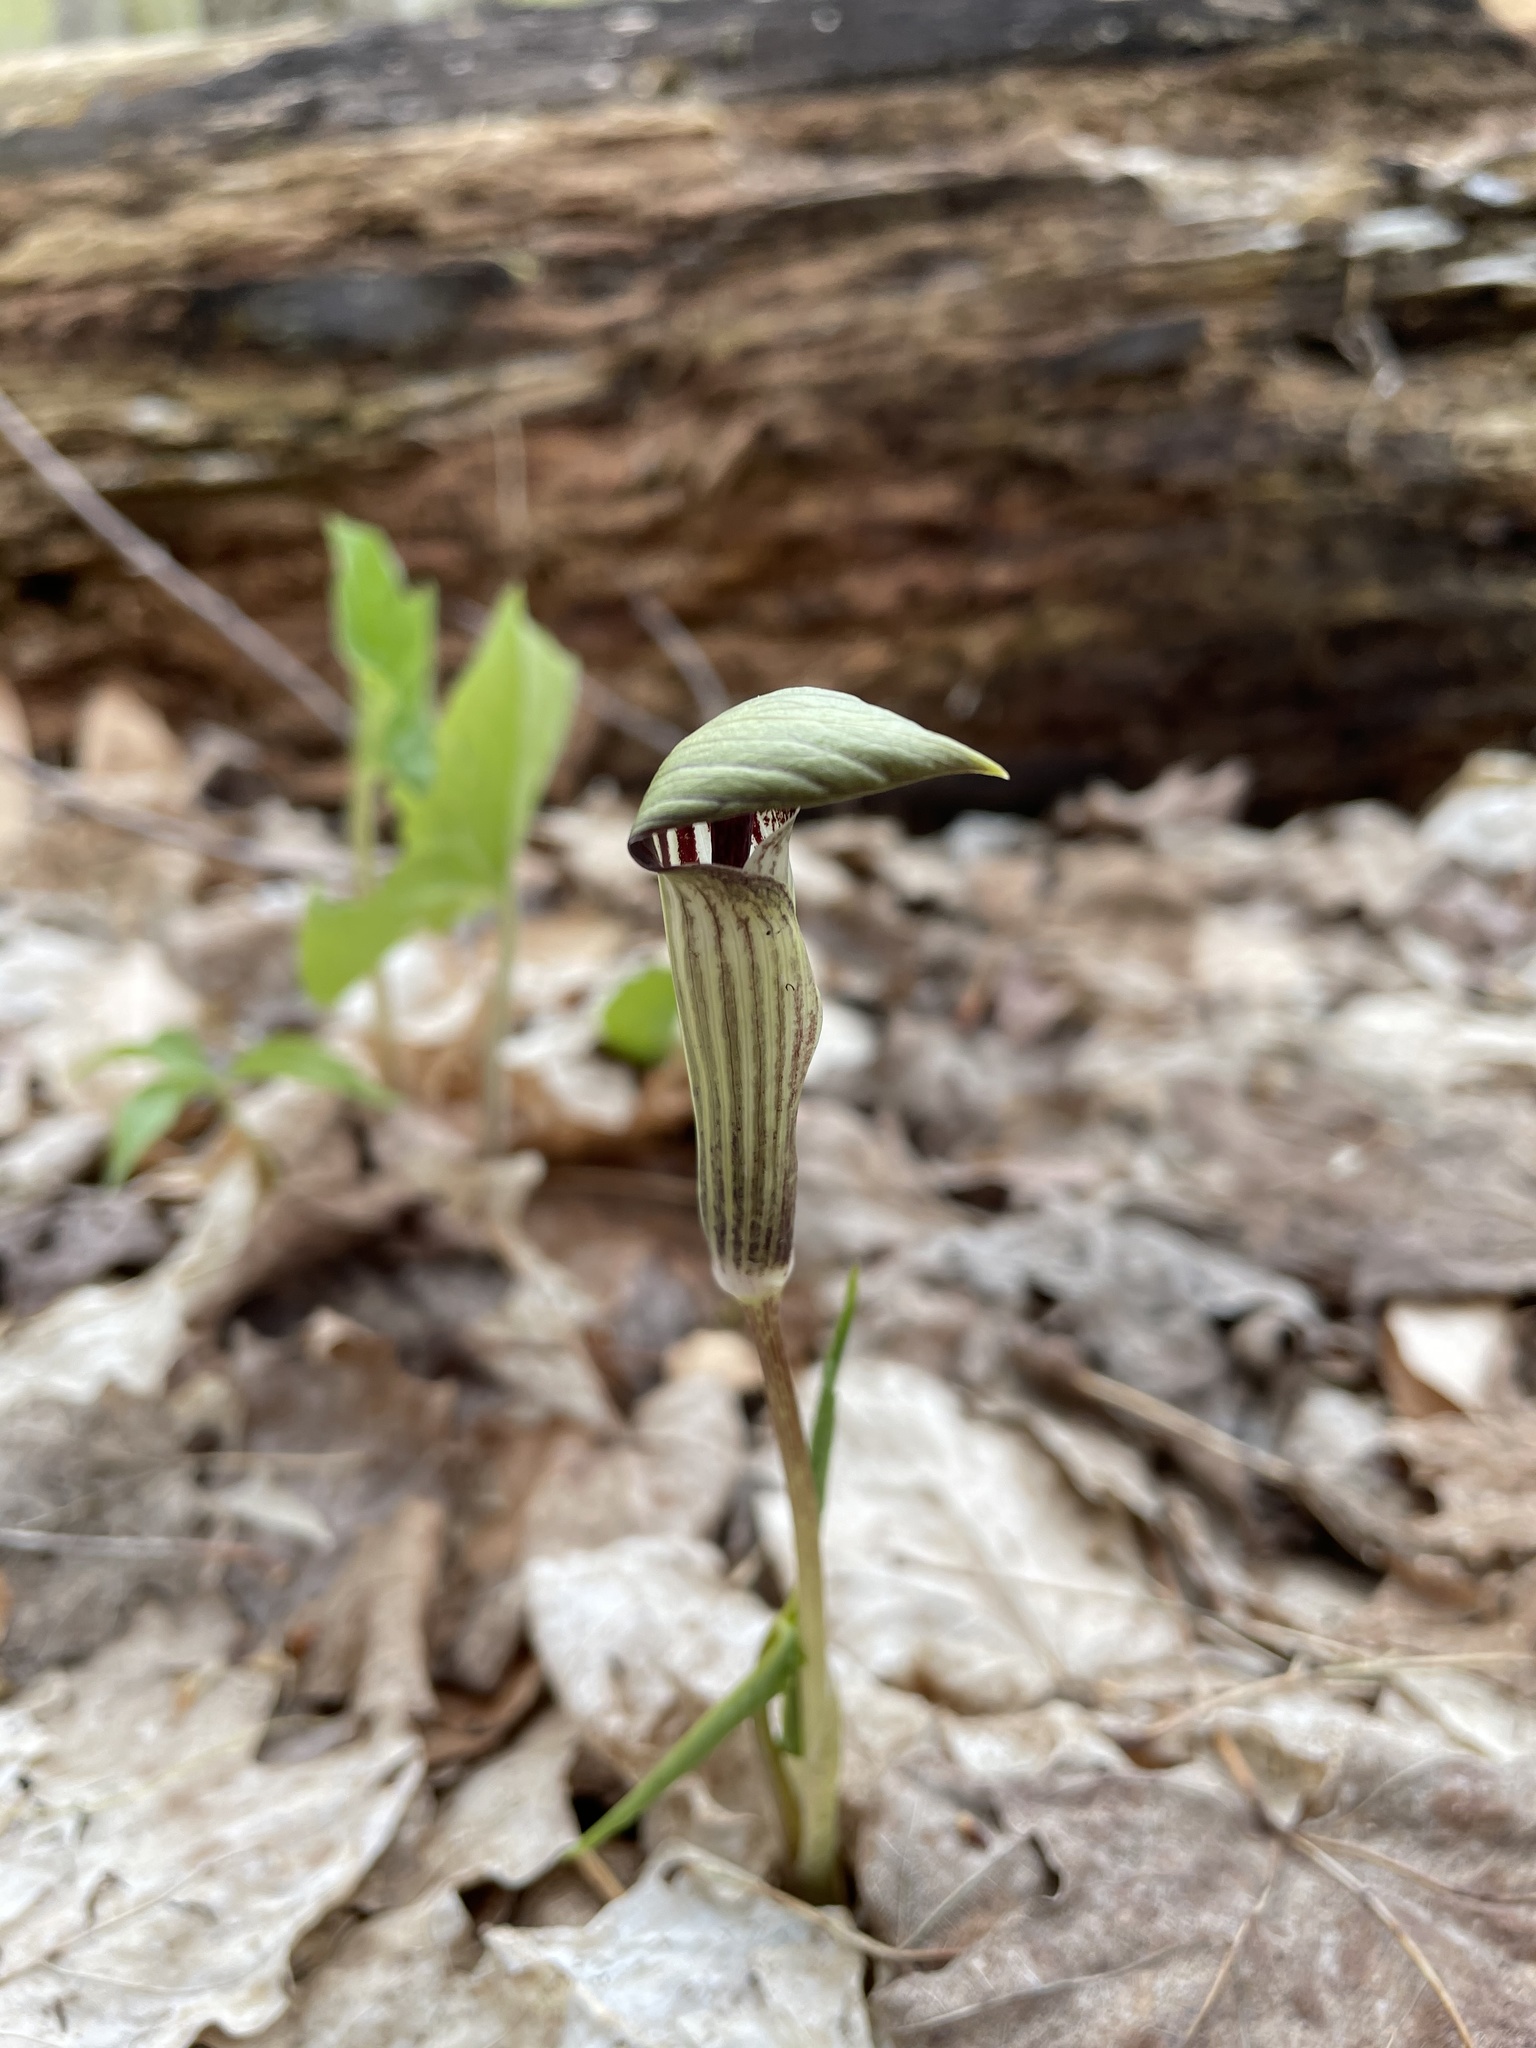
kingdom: Plantae
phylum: Tracheophyta
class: Liliopsida
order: Alismatales
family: Araceae
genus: Arisaema
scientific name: Arisaema triphyllum
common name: Jack-in-the-pulpit
